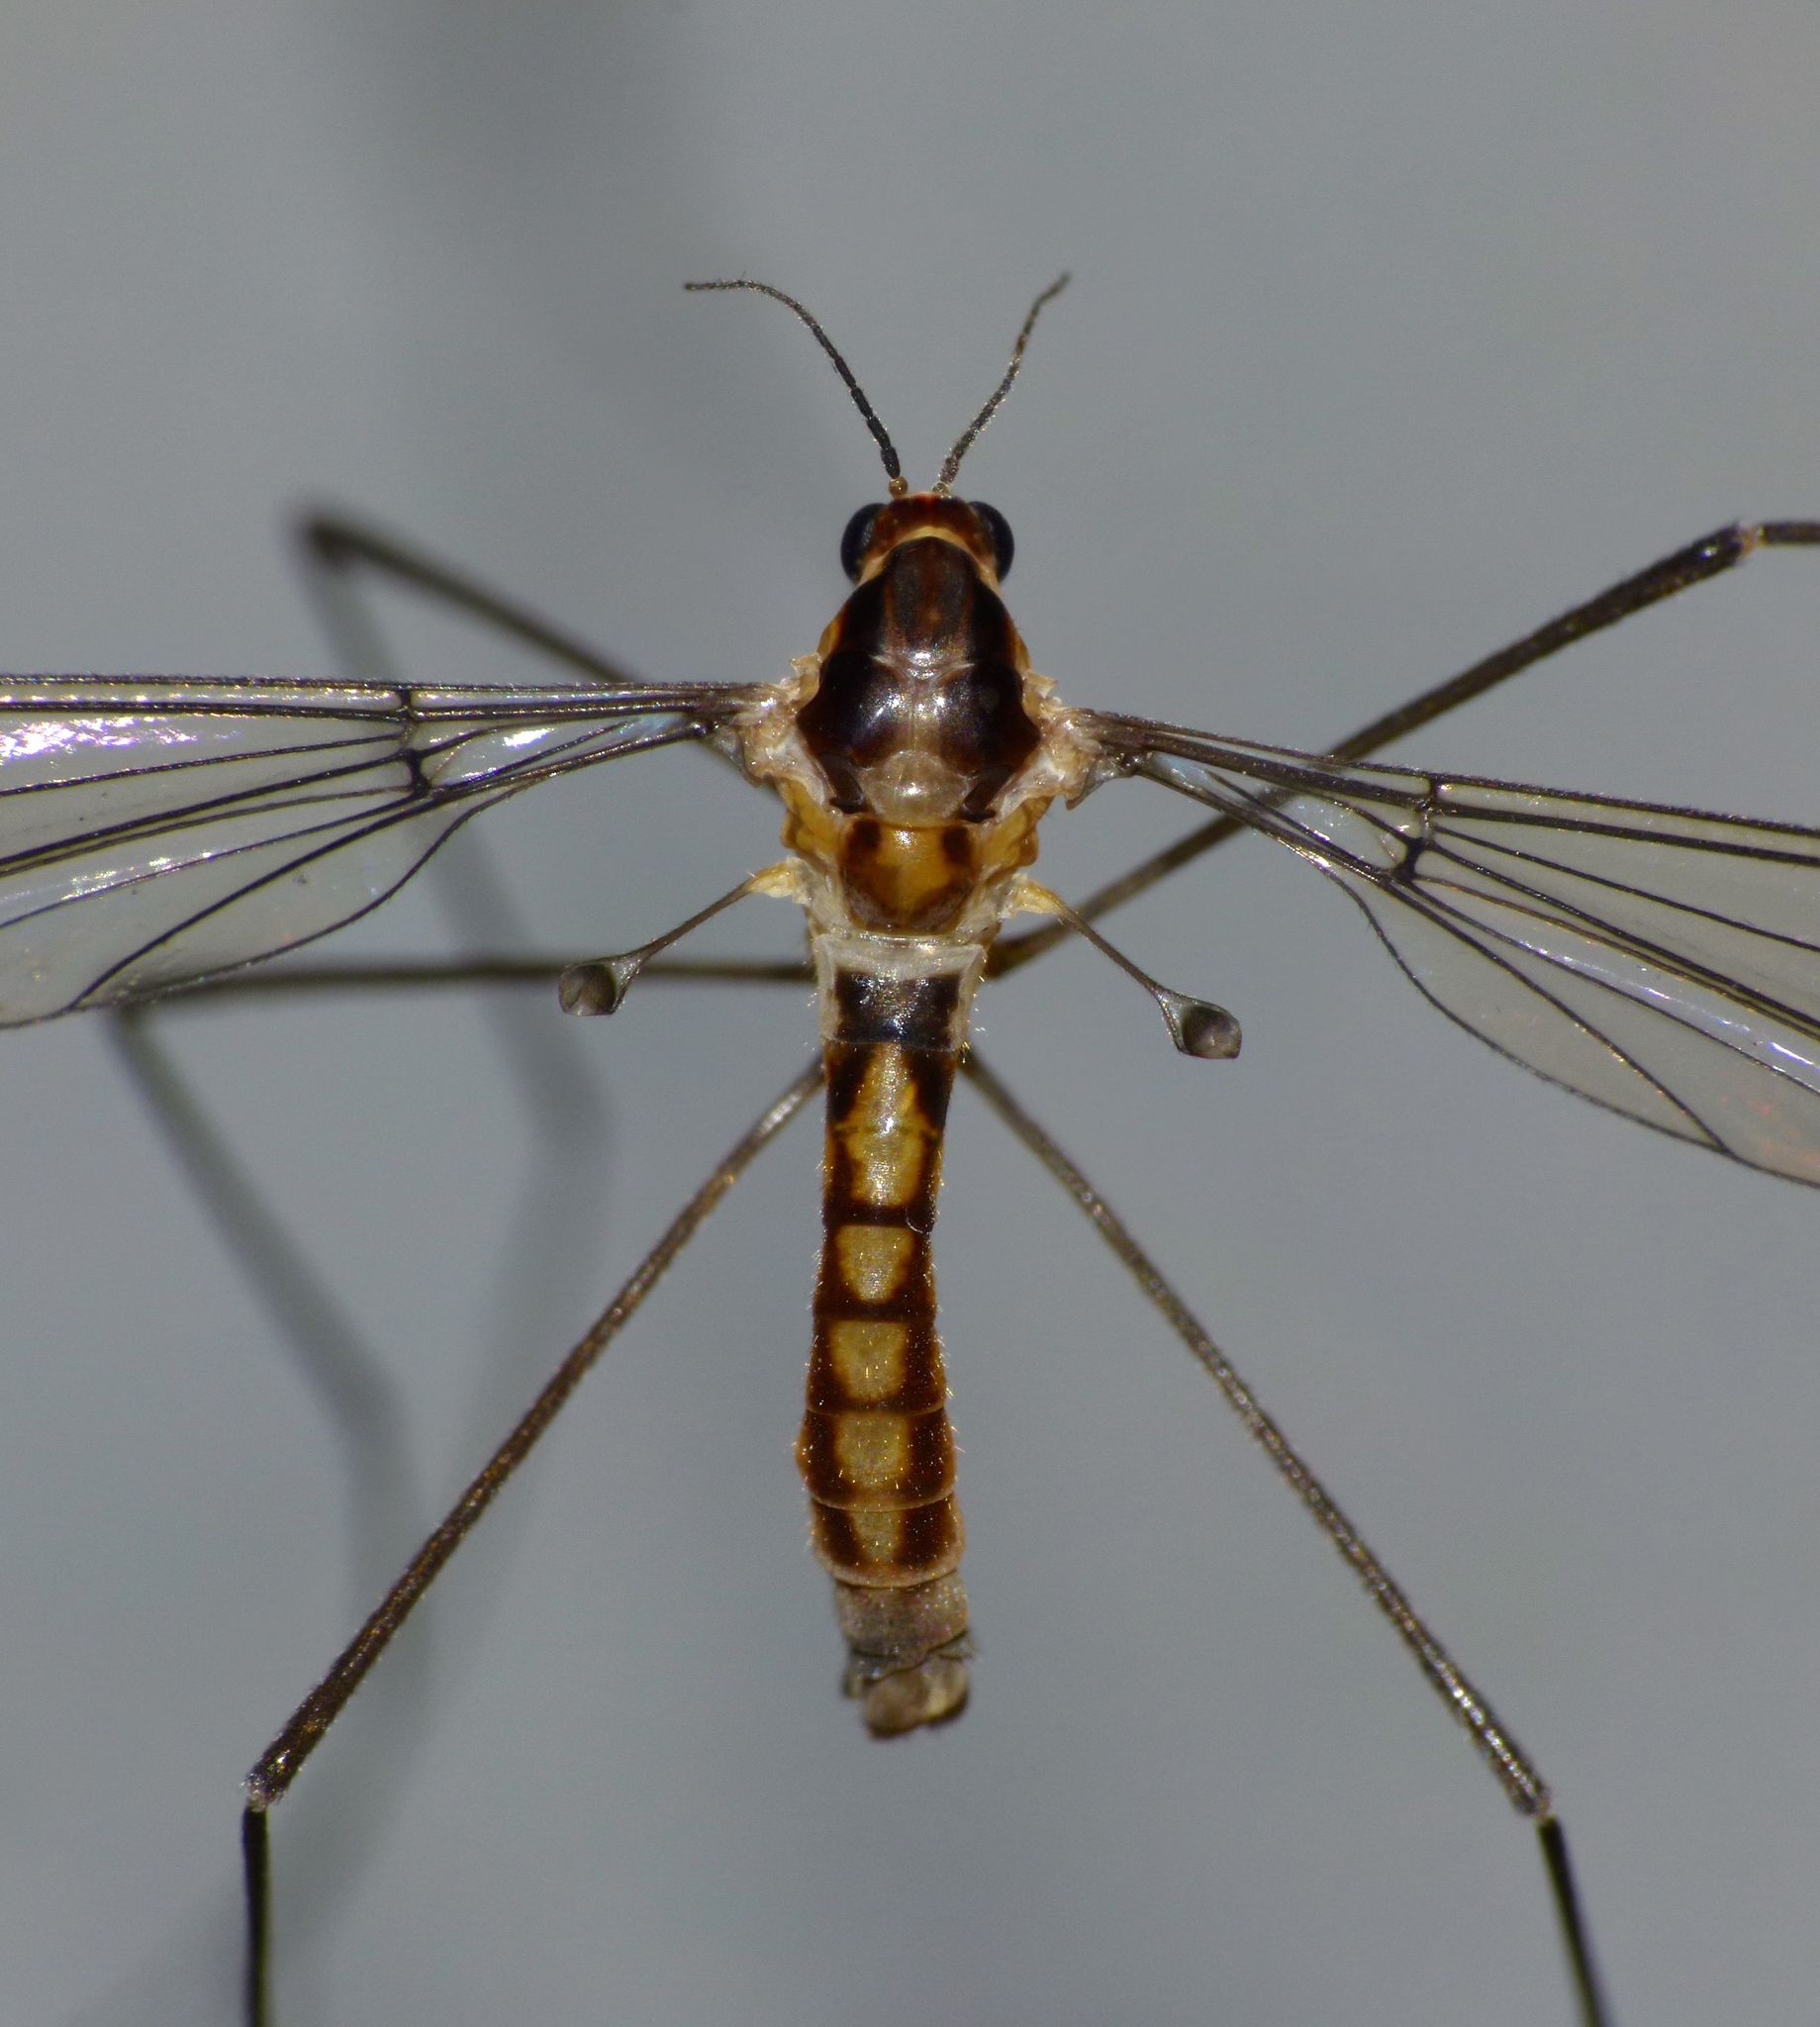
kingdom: Animalia
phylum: Arthropoda
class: Insecta
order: Diptera
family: Tipulidae
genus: Leptotarsus
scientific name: Leptotarsus subtener
